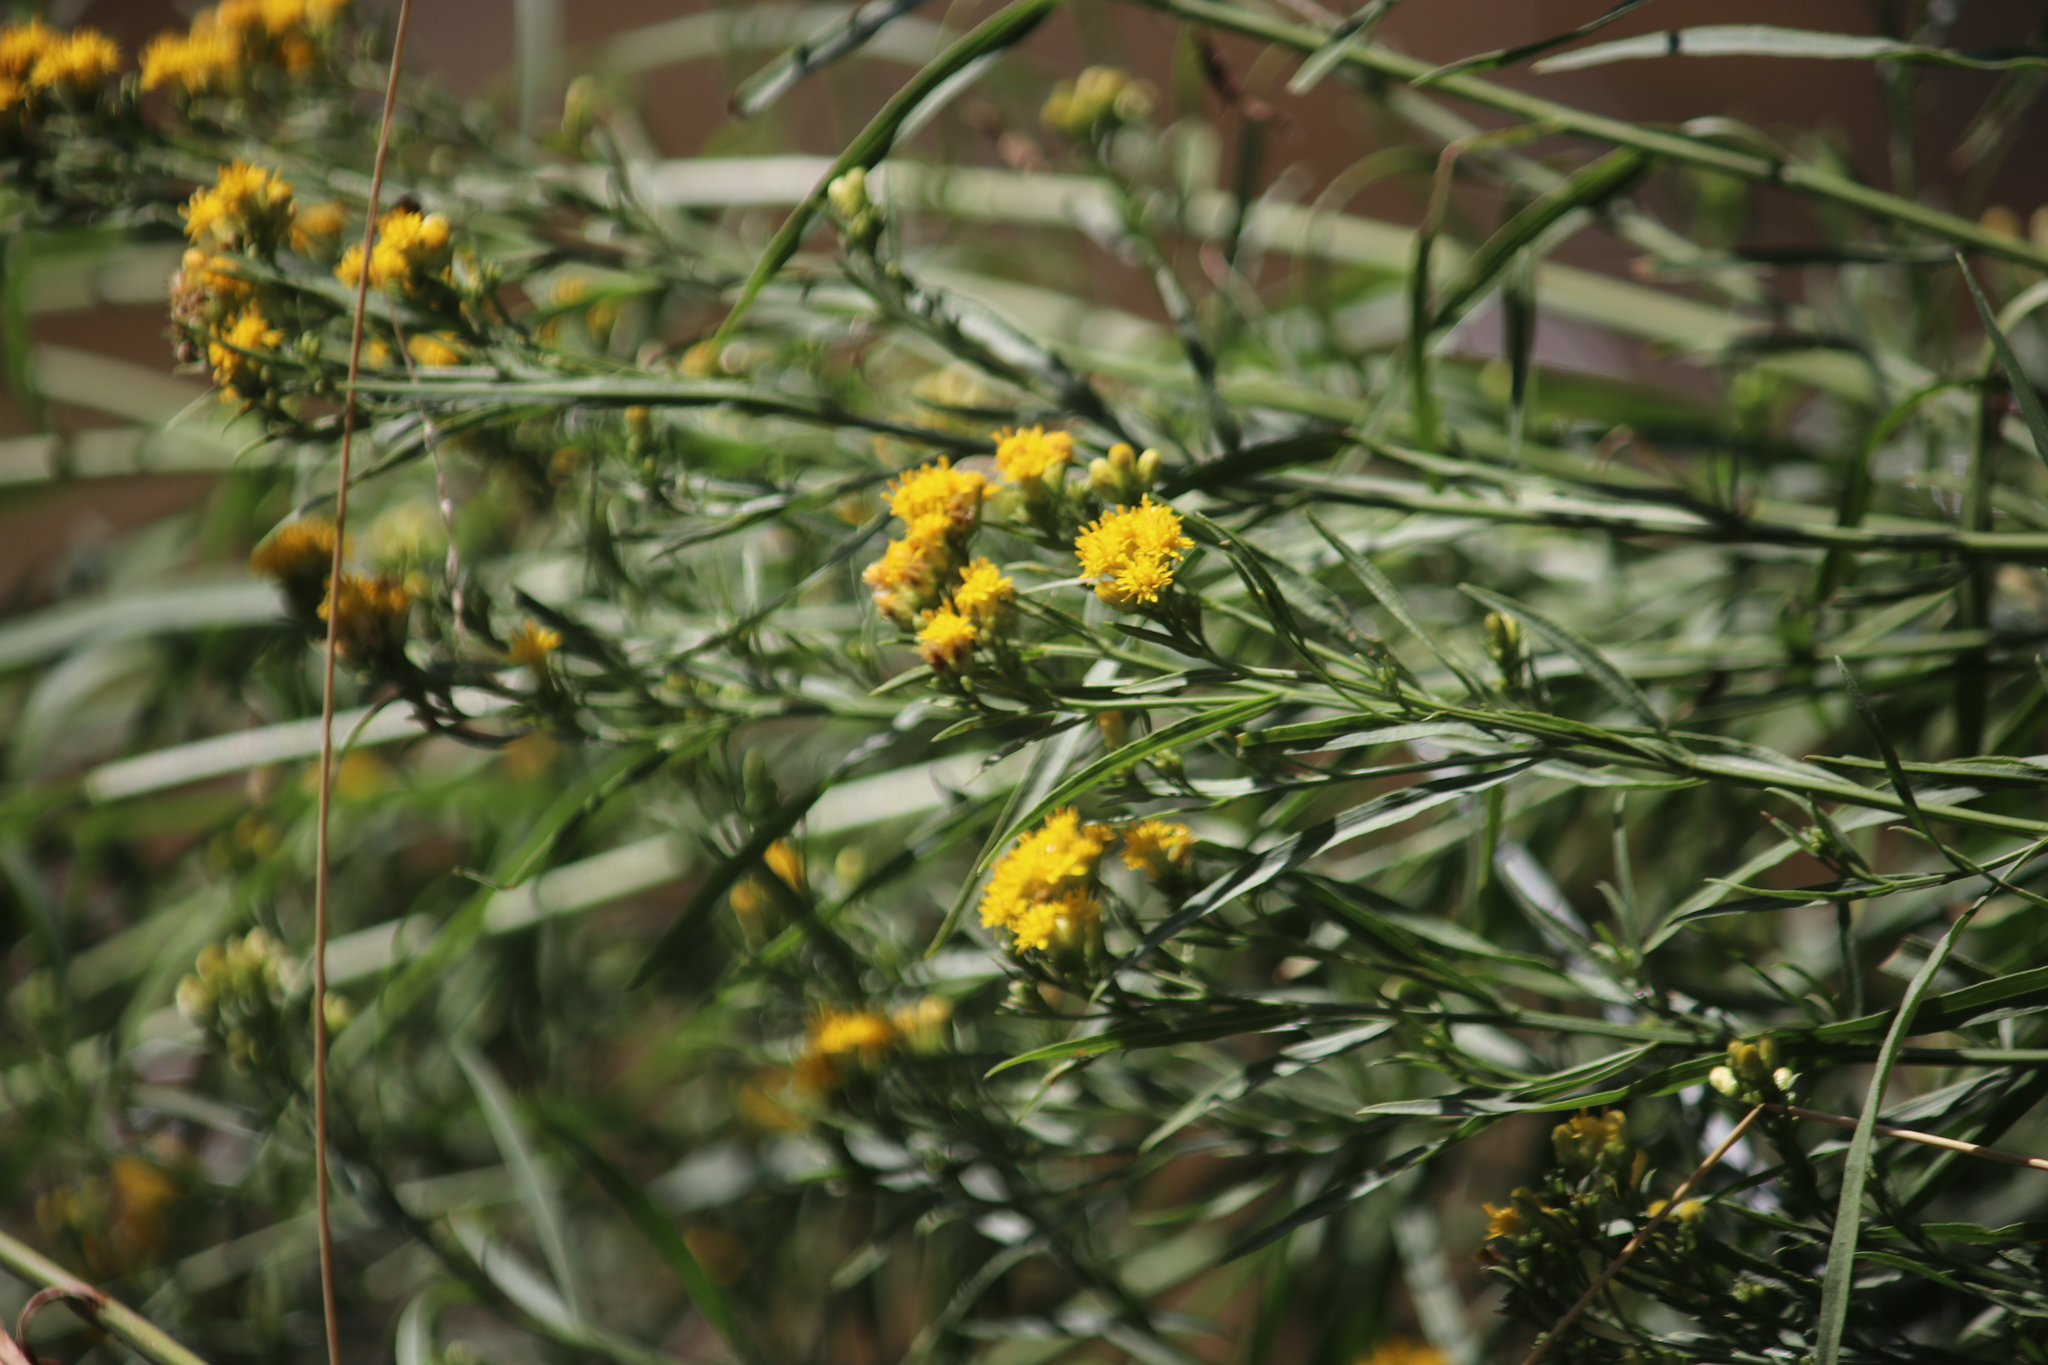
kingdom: Plantae
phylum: Tracheophyta
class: Magnoliopsida
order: Asterales
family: Asteraceae
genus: Euthamia
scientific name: Euthamia occidentalis
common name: Western goldentop
